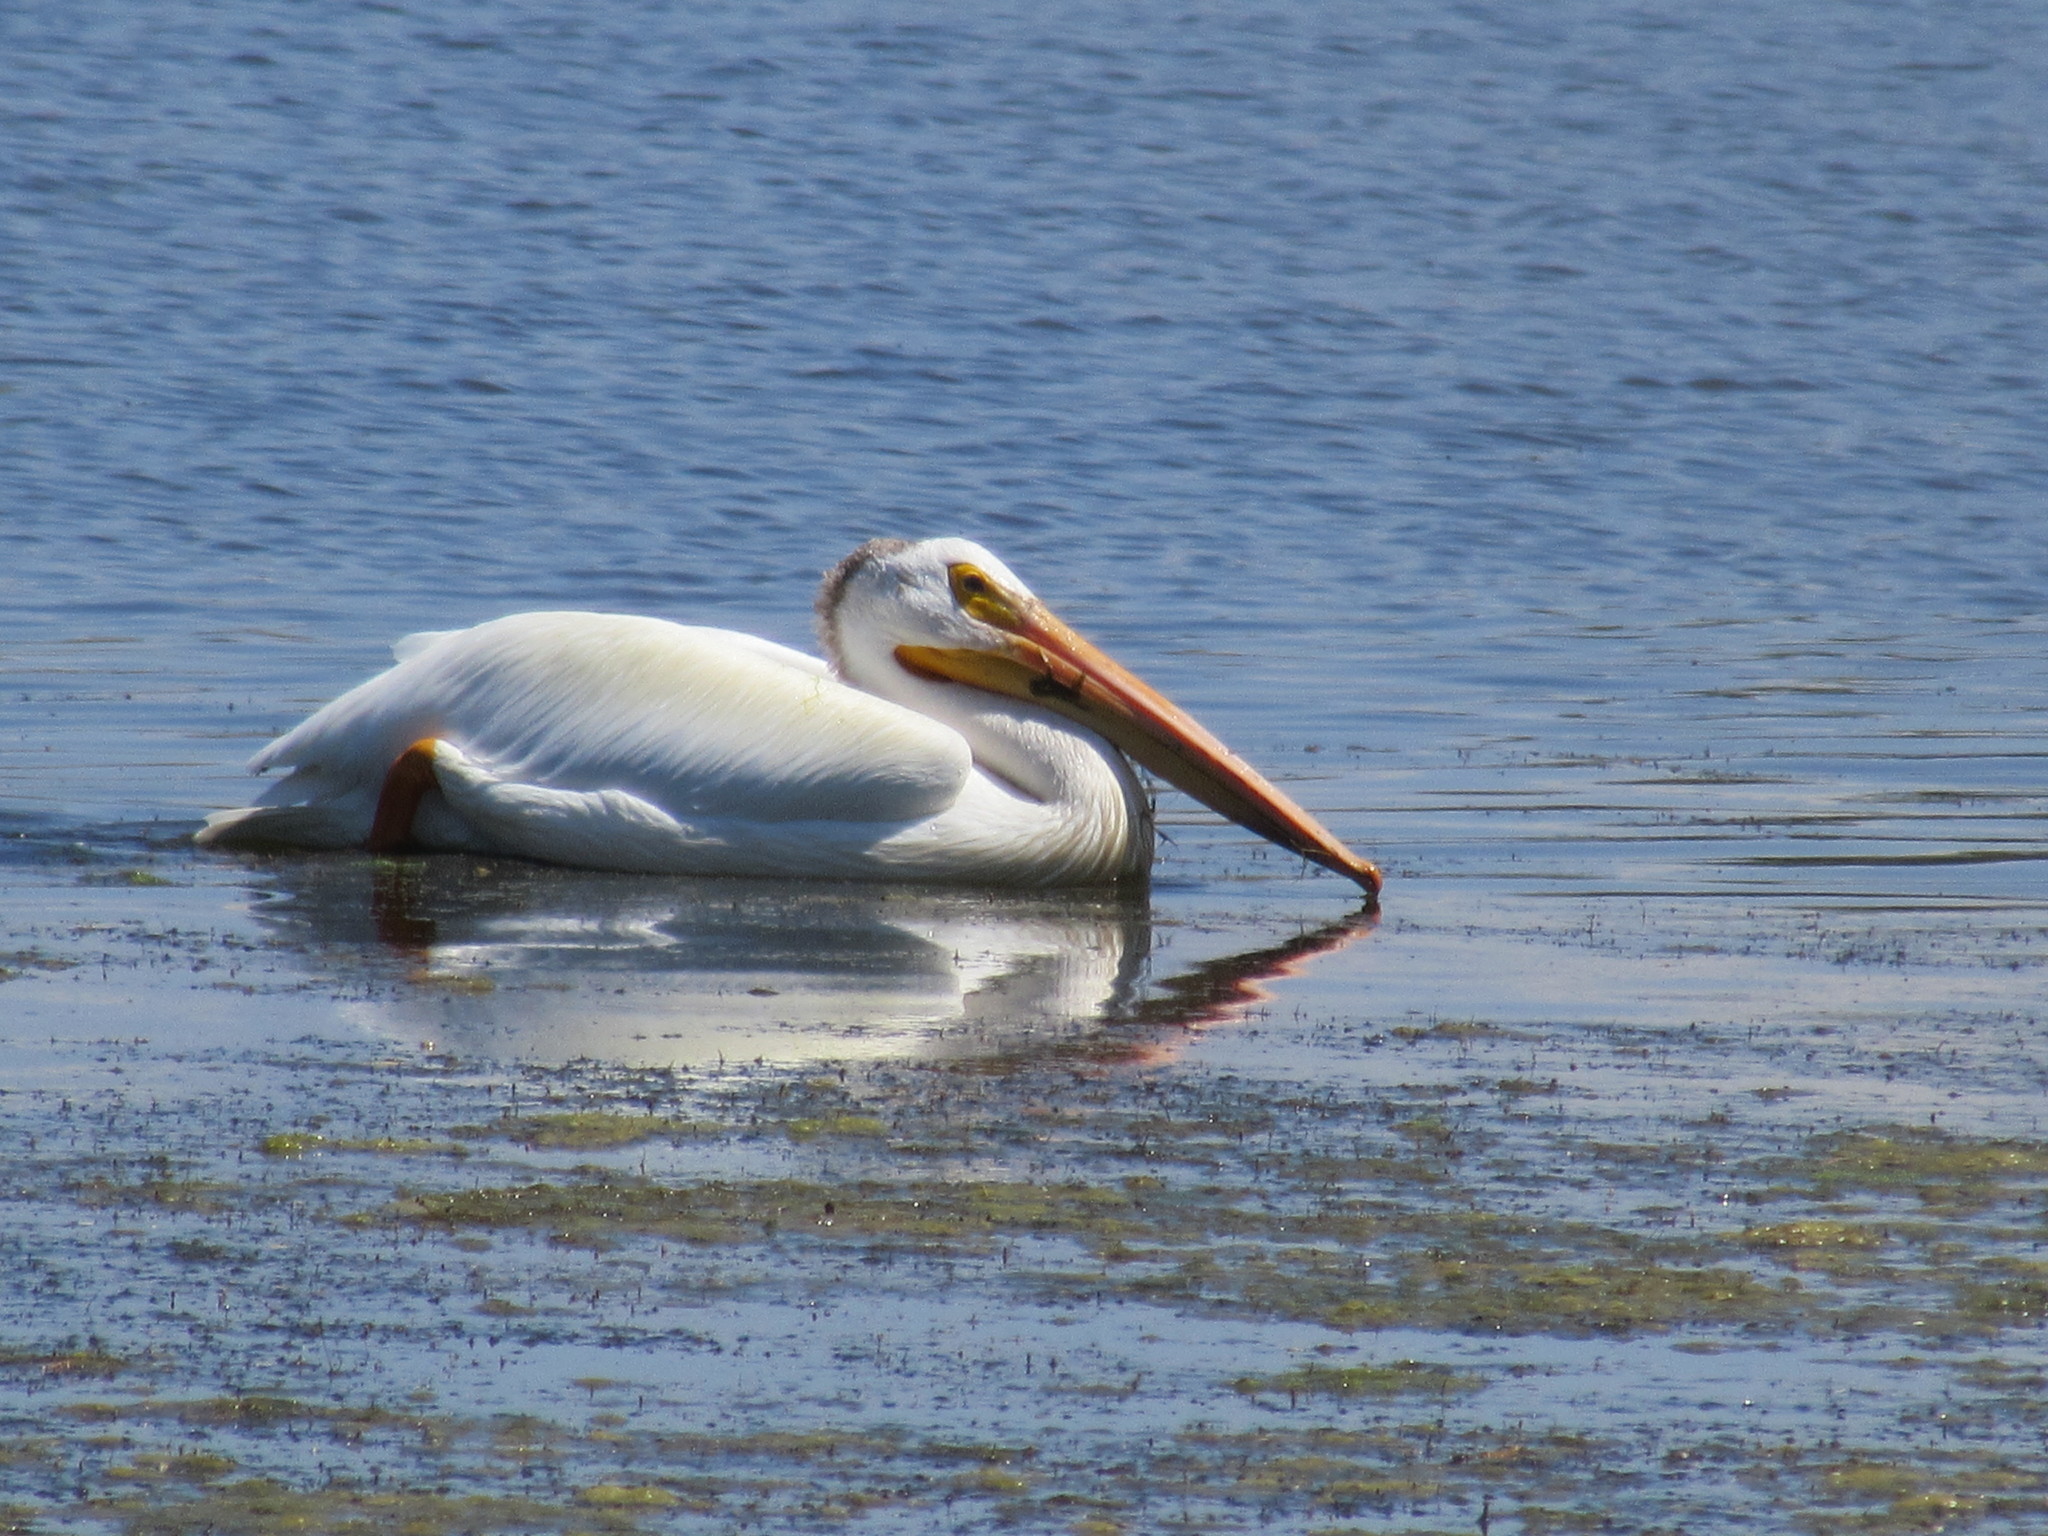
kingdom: Animalia
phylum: Chordata
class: Aves
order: Pelecaniformes
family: Pelecanidae
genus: Pelecanus
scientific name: Pelecanus erythrorhynchos
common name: American white pelican
